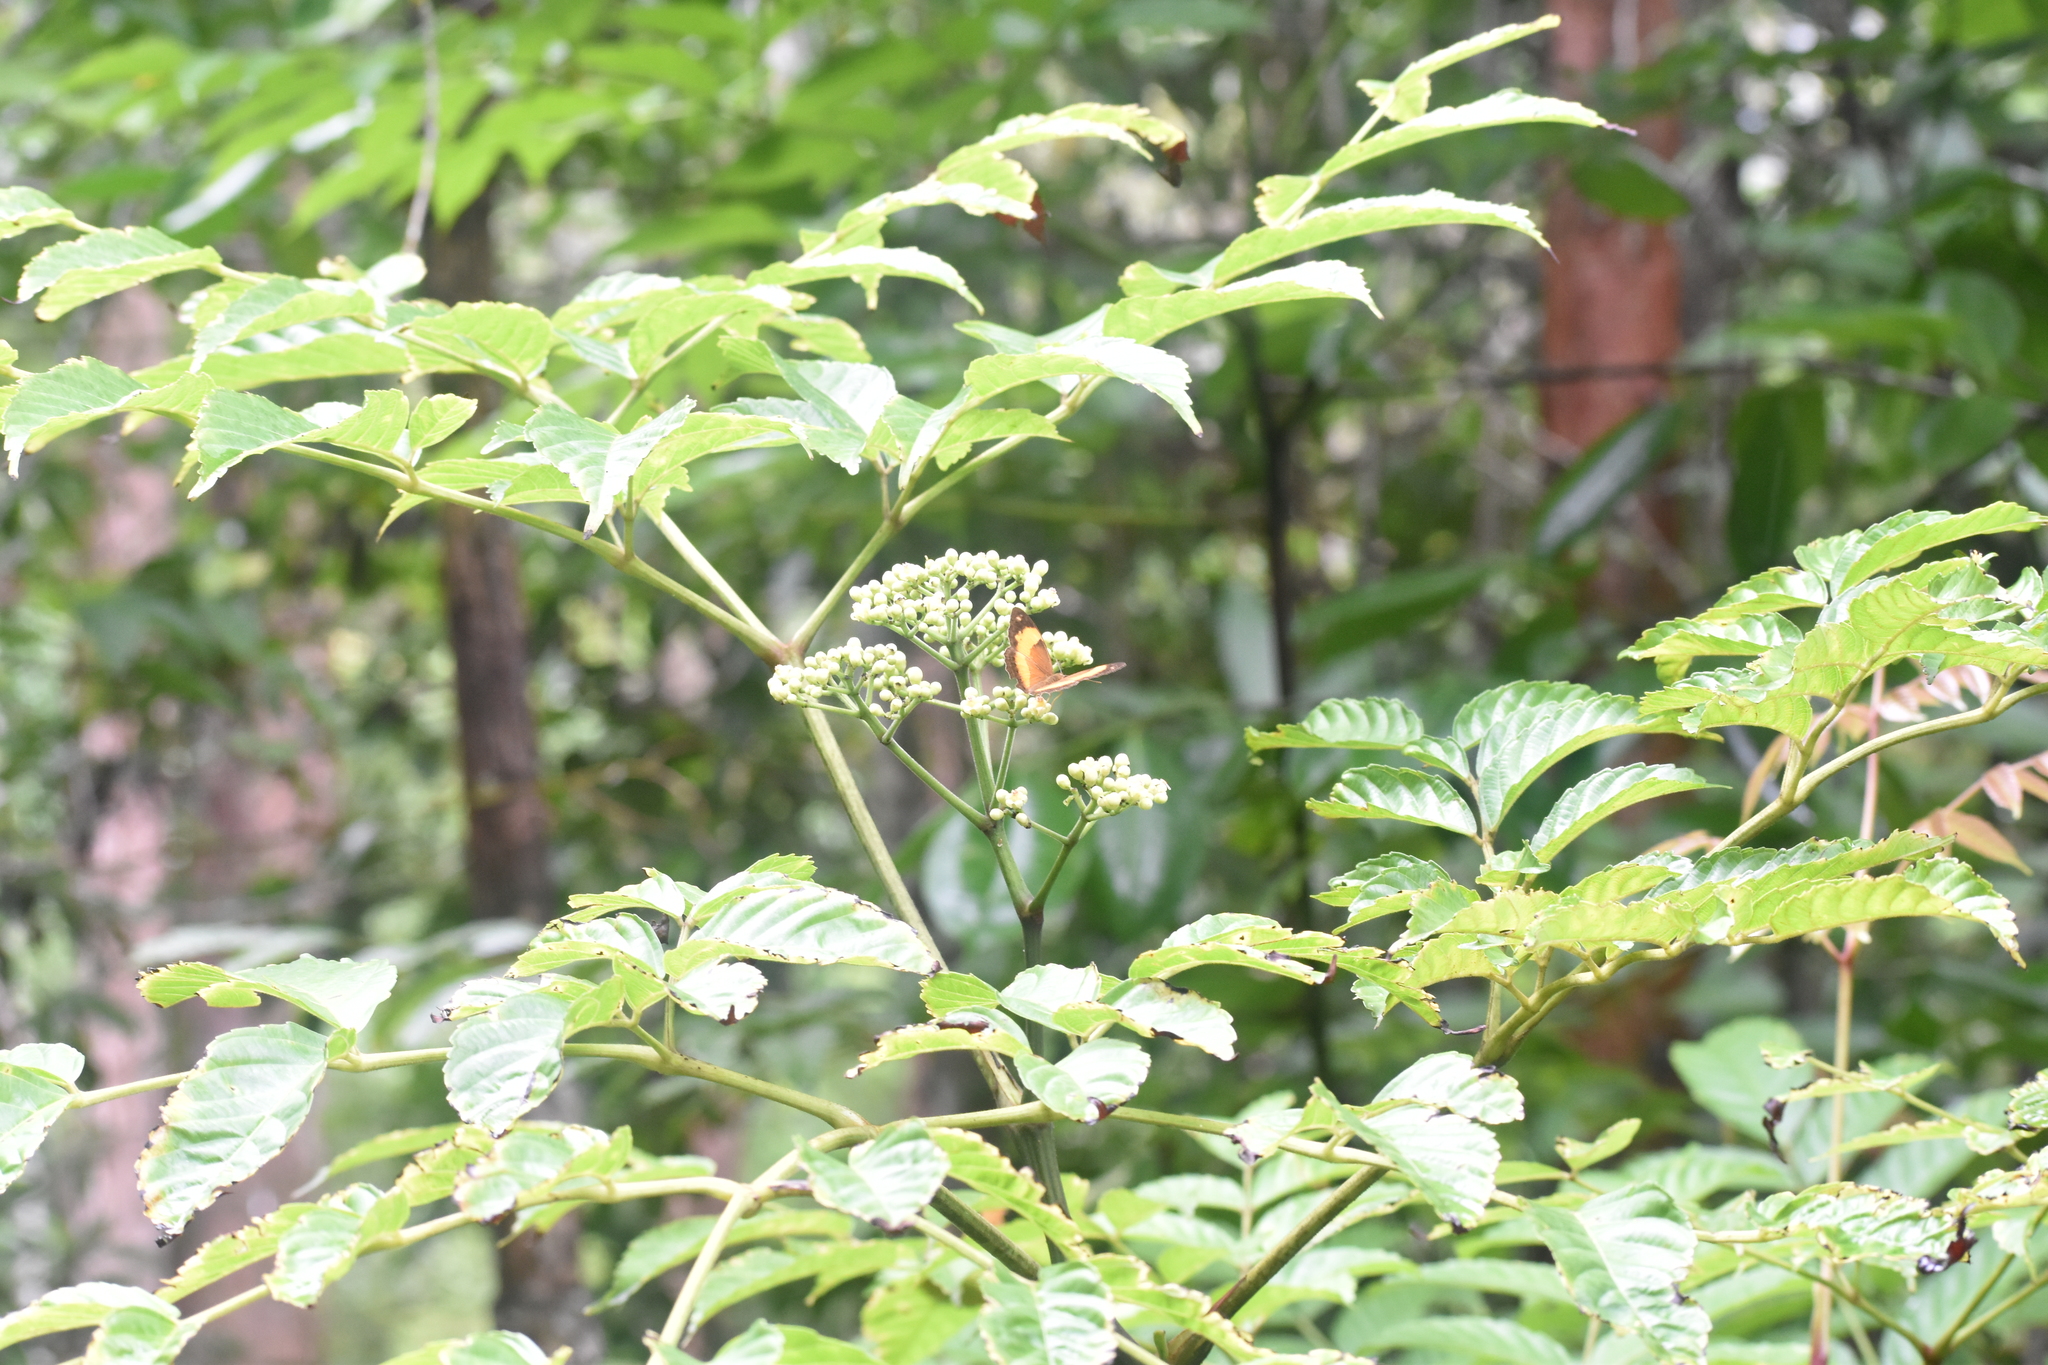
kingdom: Animalia
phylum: Arthropoda
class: Insecta
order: Lepidoptera
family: Nymphalidae
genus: Yoma
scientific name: Yoma sabina
